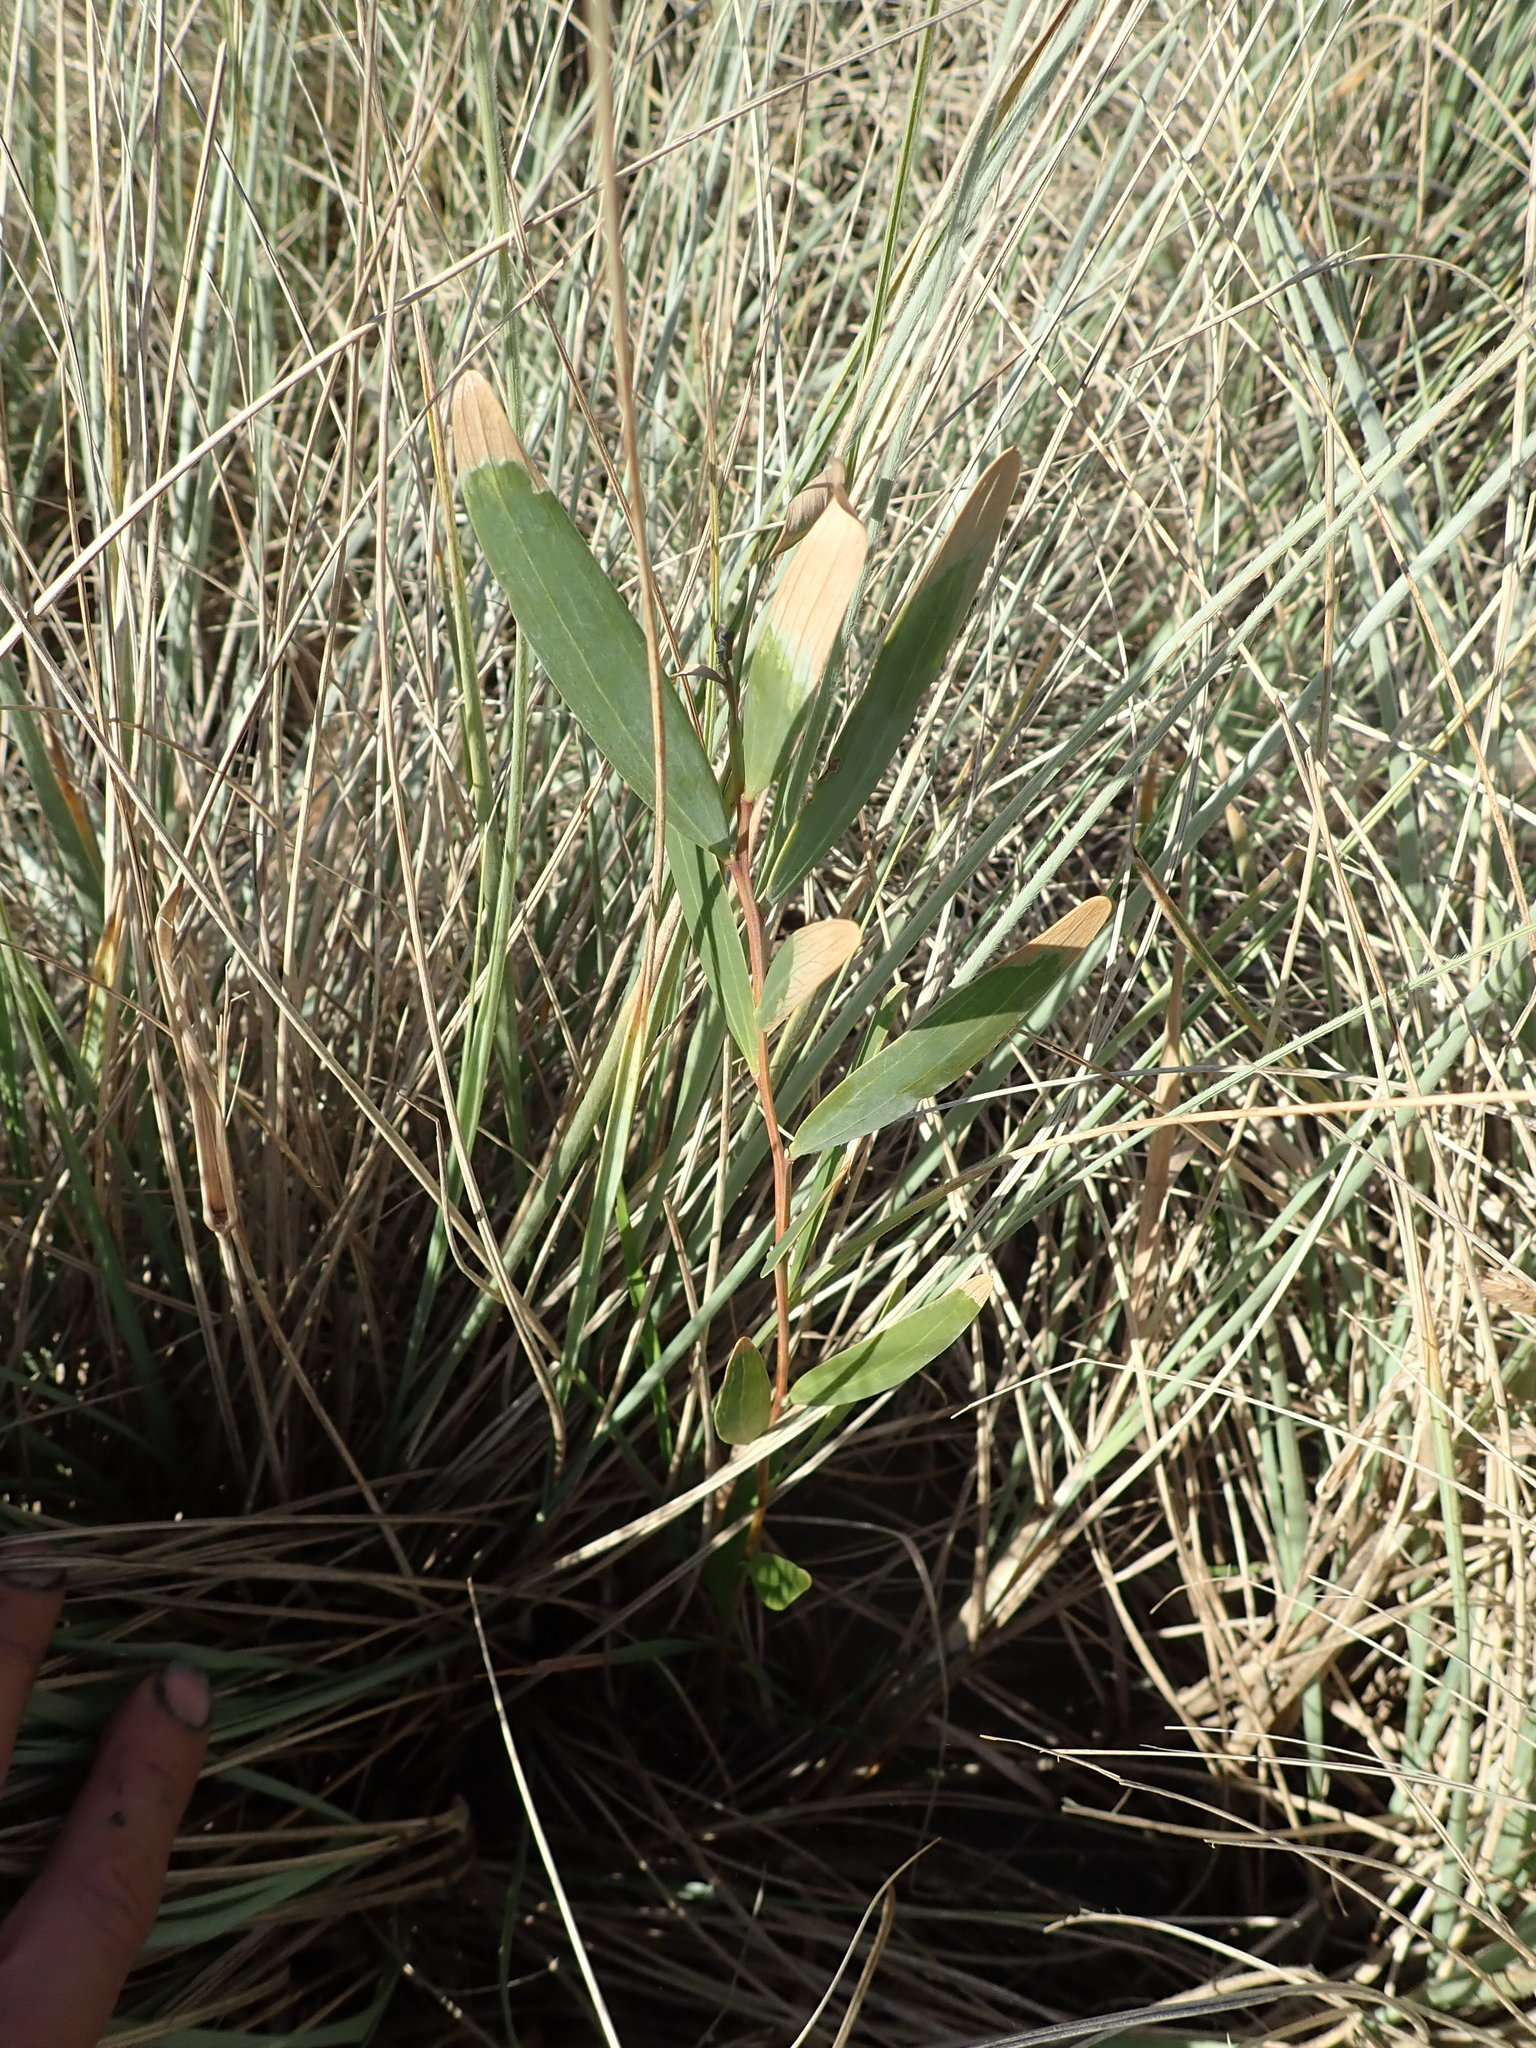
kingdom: Plantae
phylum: Tracheophyta
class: Magnoliopsida
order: Fabales
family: Fabaceae
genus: Acacia
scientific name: Acacia longifolia
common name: Sydney golden wattle
